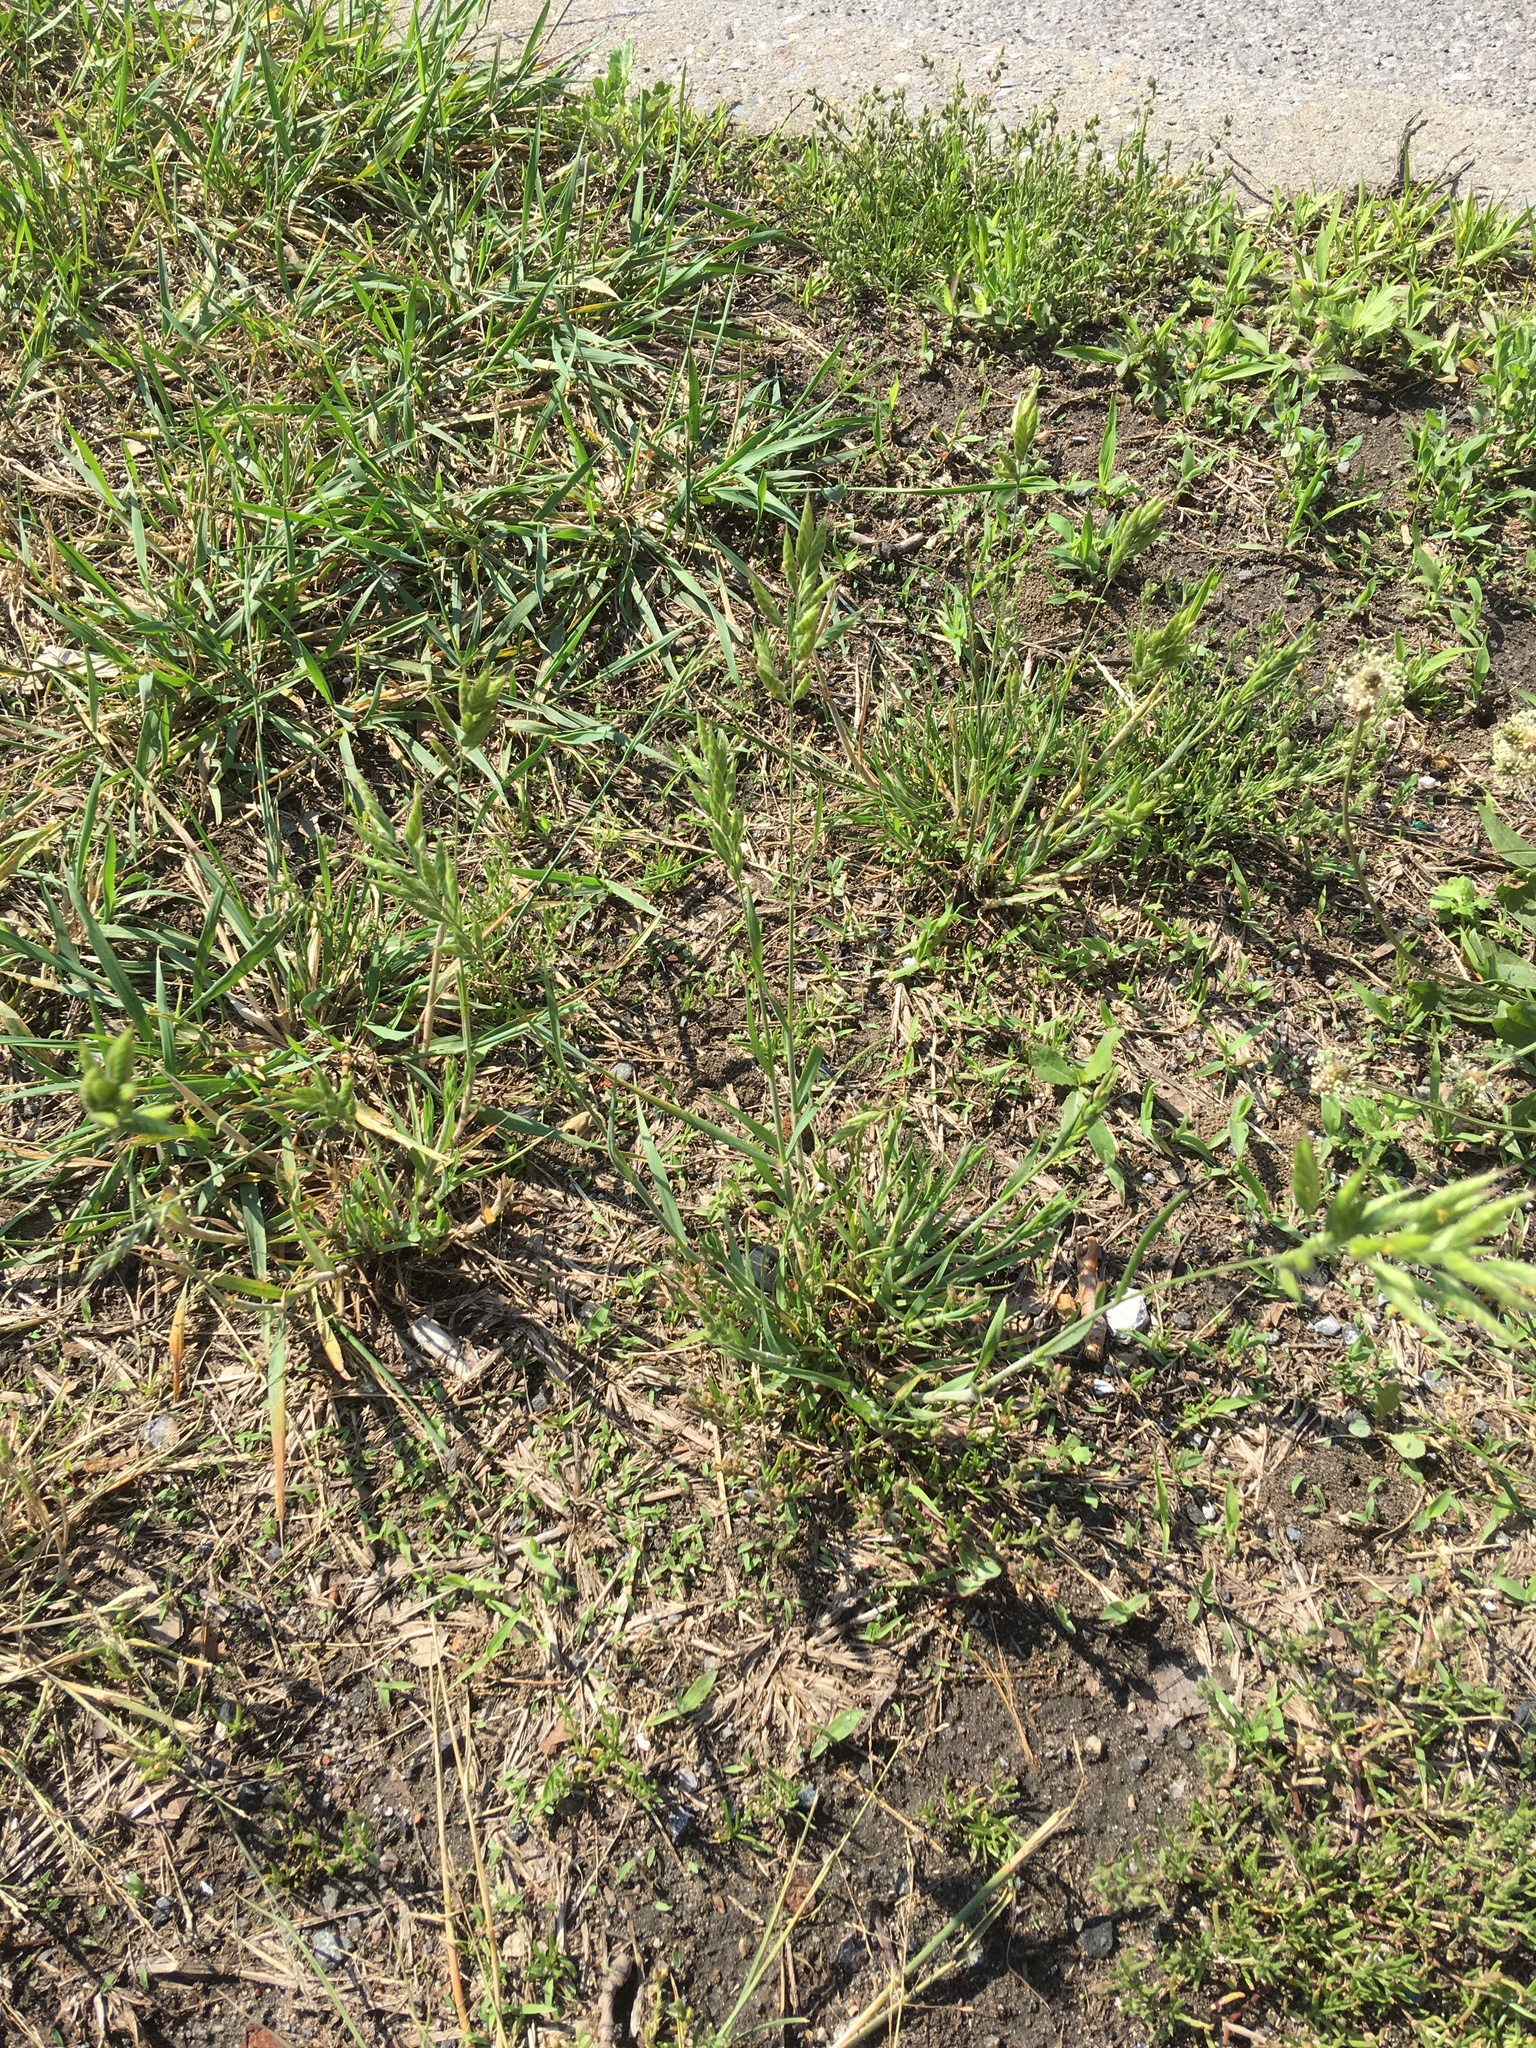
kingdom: Plantae
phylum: Tracheophyta
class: Liliopsida
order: Poales
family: Poaceae
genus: Bromus
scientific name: Bromus hordeaceus
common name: Soft brome
